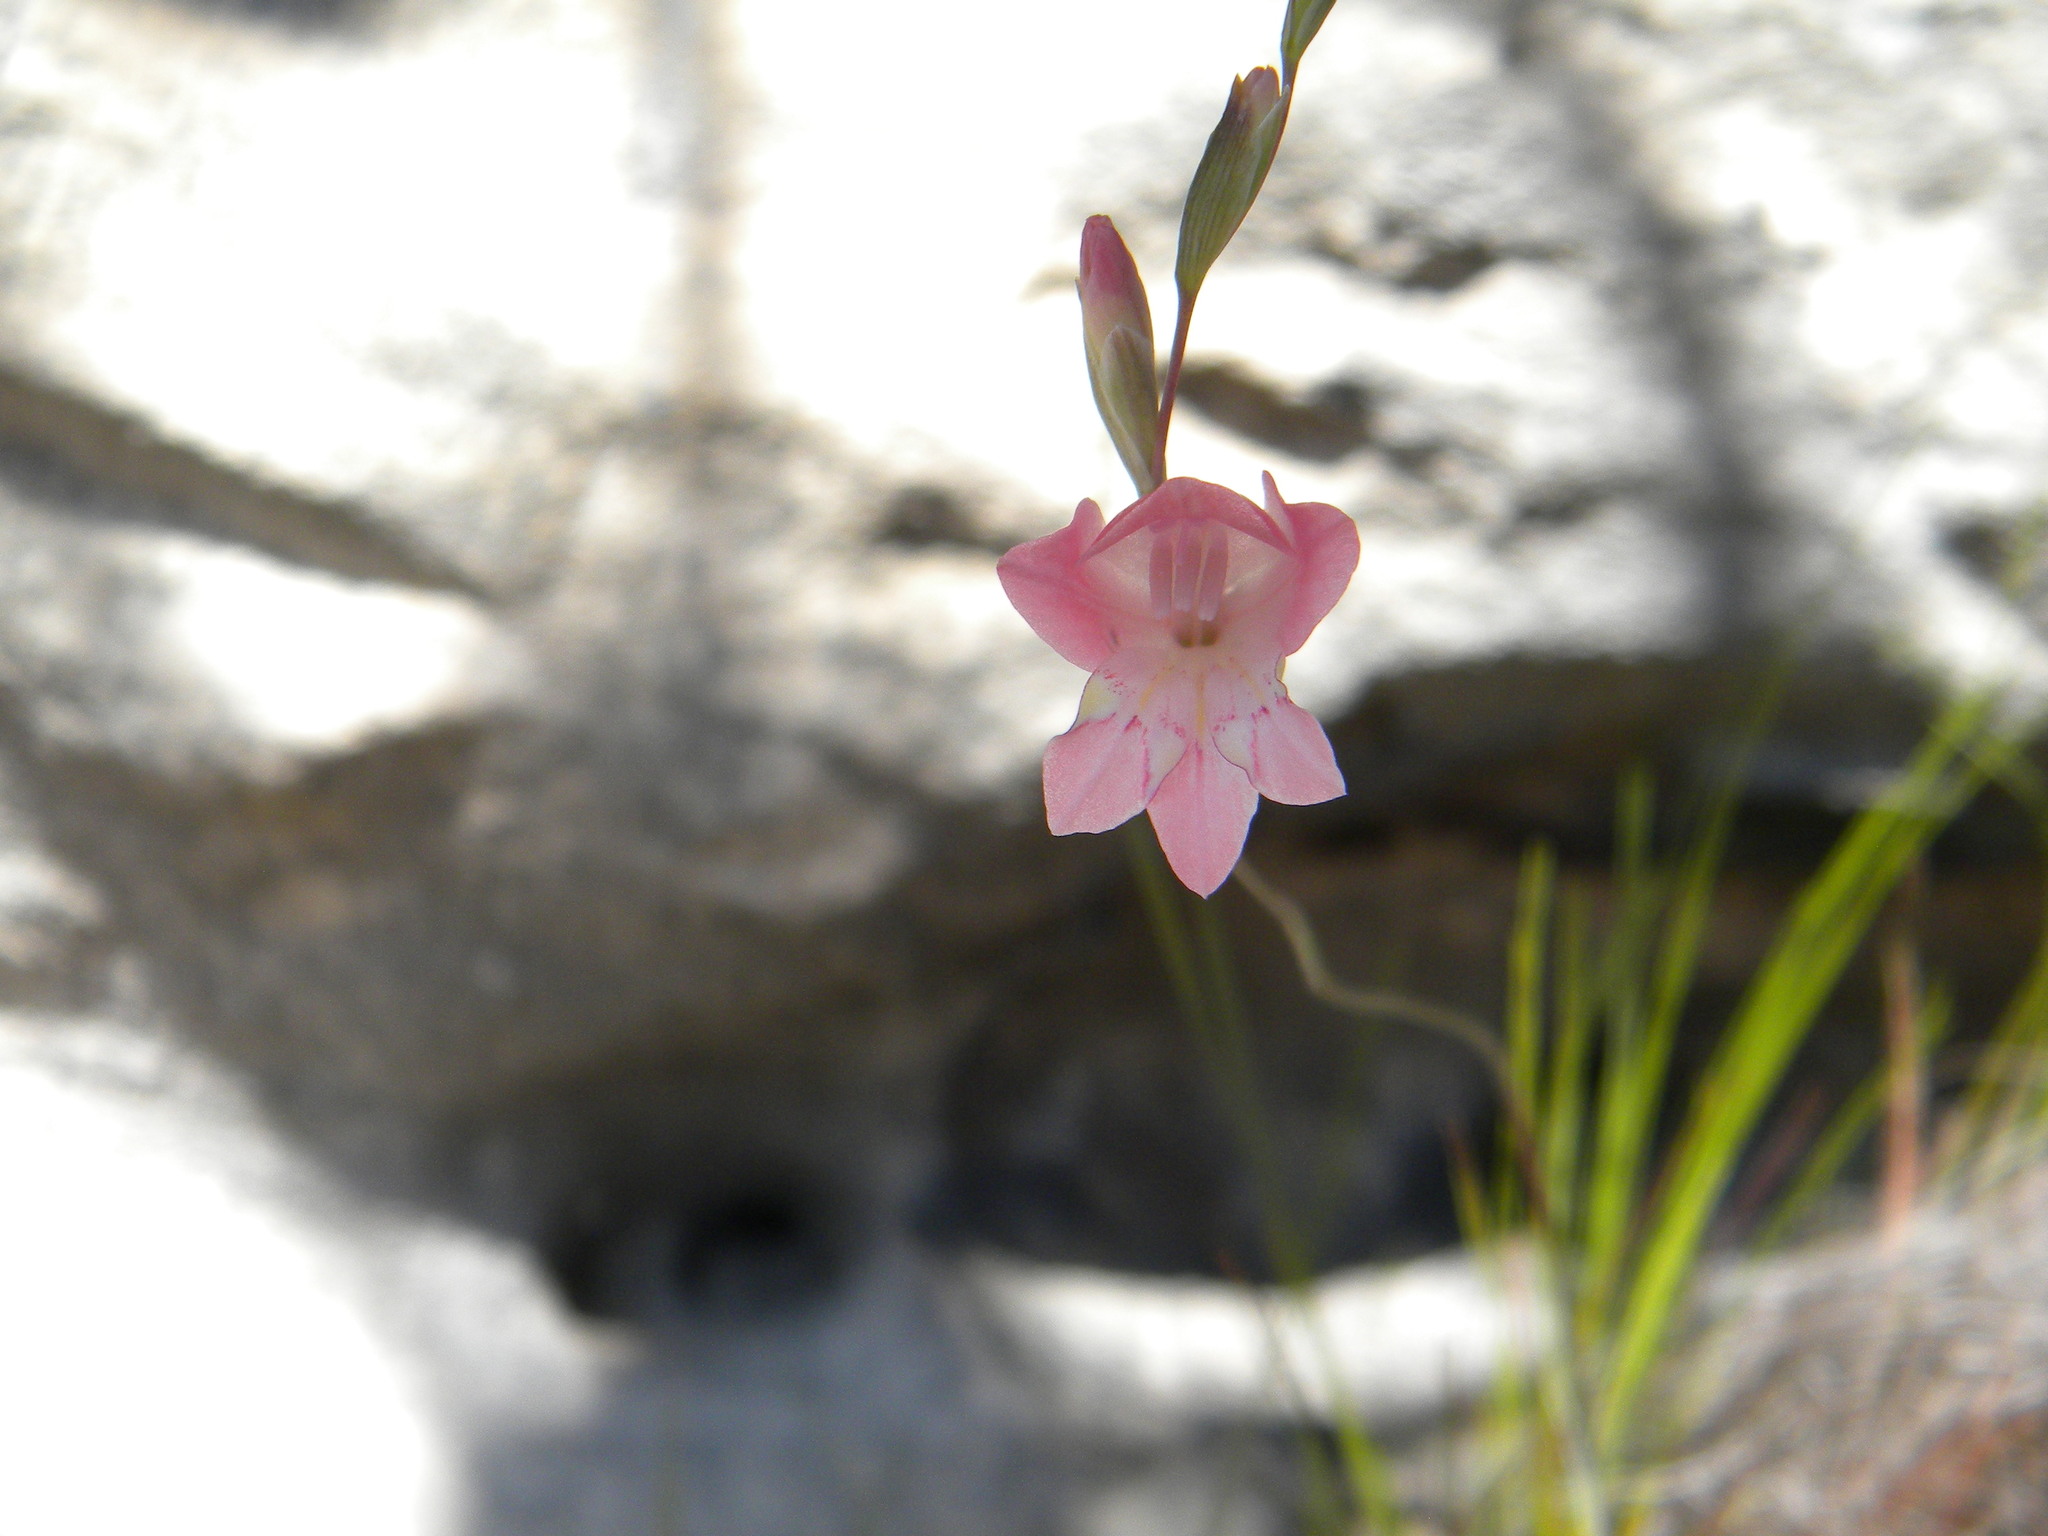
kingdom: Plantae
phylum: Tracheophyta
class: Liliopsida
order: Asparagales
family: Iridaceae
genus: Gladiolus
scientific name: Gladiolus brevifolius
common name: March pypie
